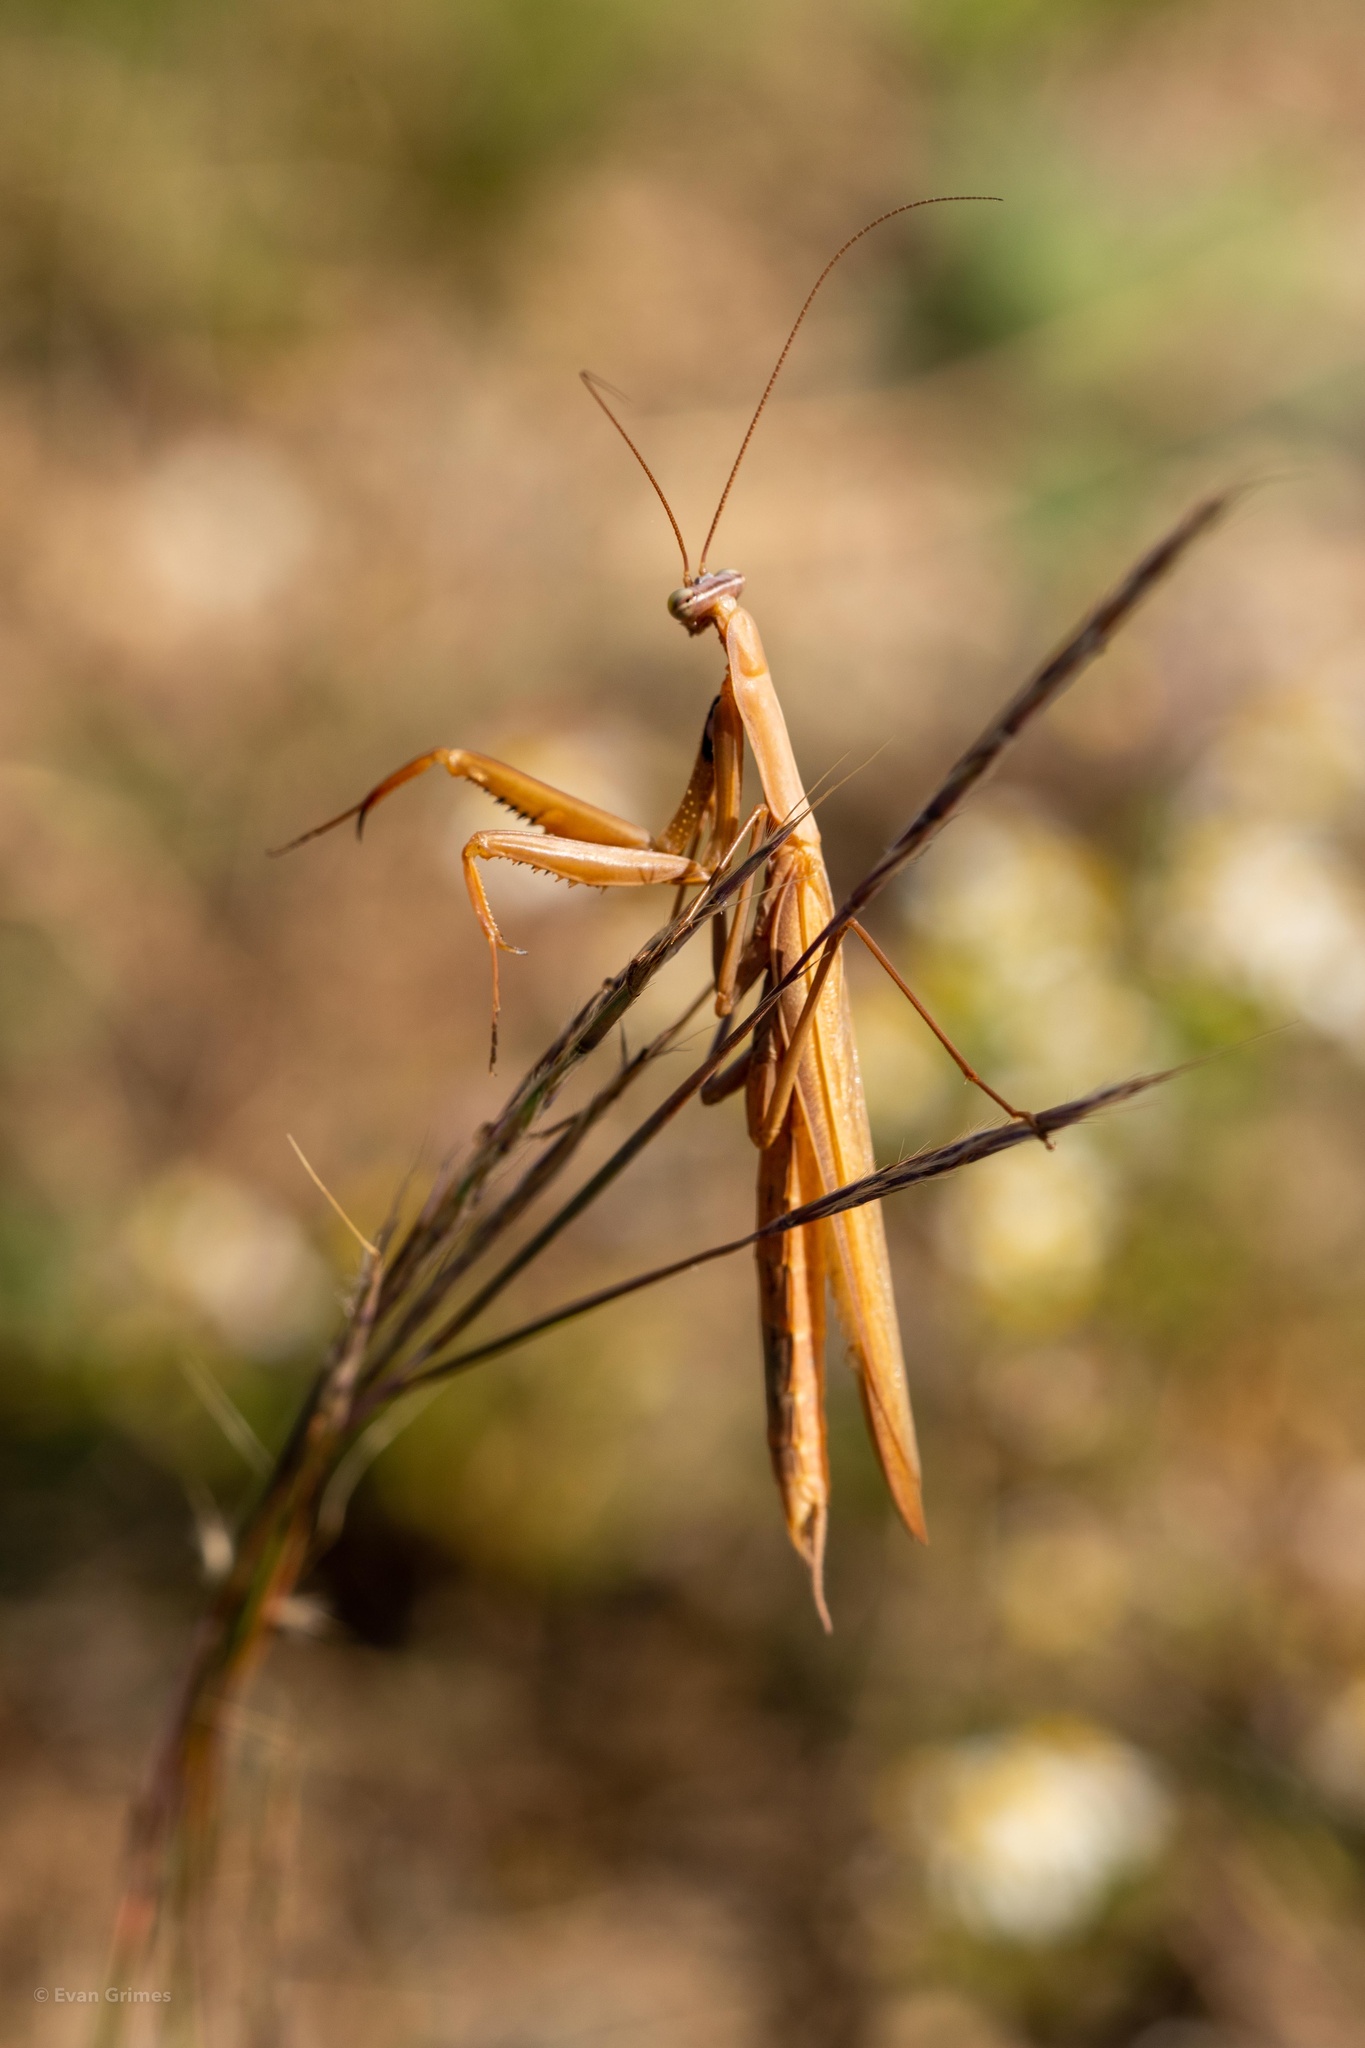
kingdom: Animalia
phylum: Arthropoda
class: Insecta
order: Mantodea
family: Mantidae
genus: Mantis
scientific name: Mantis religiosa
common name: Praying mantis
